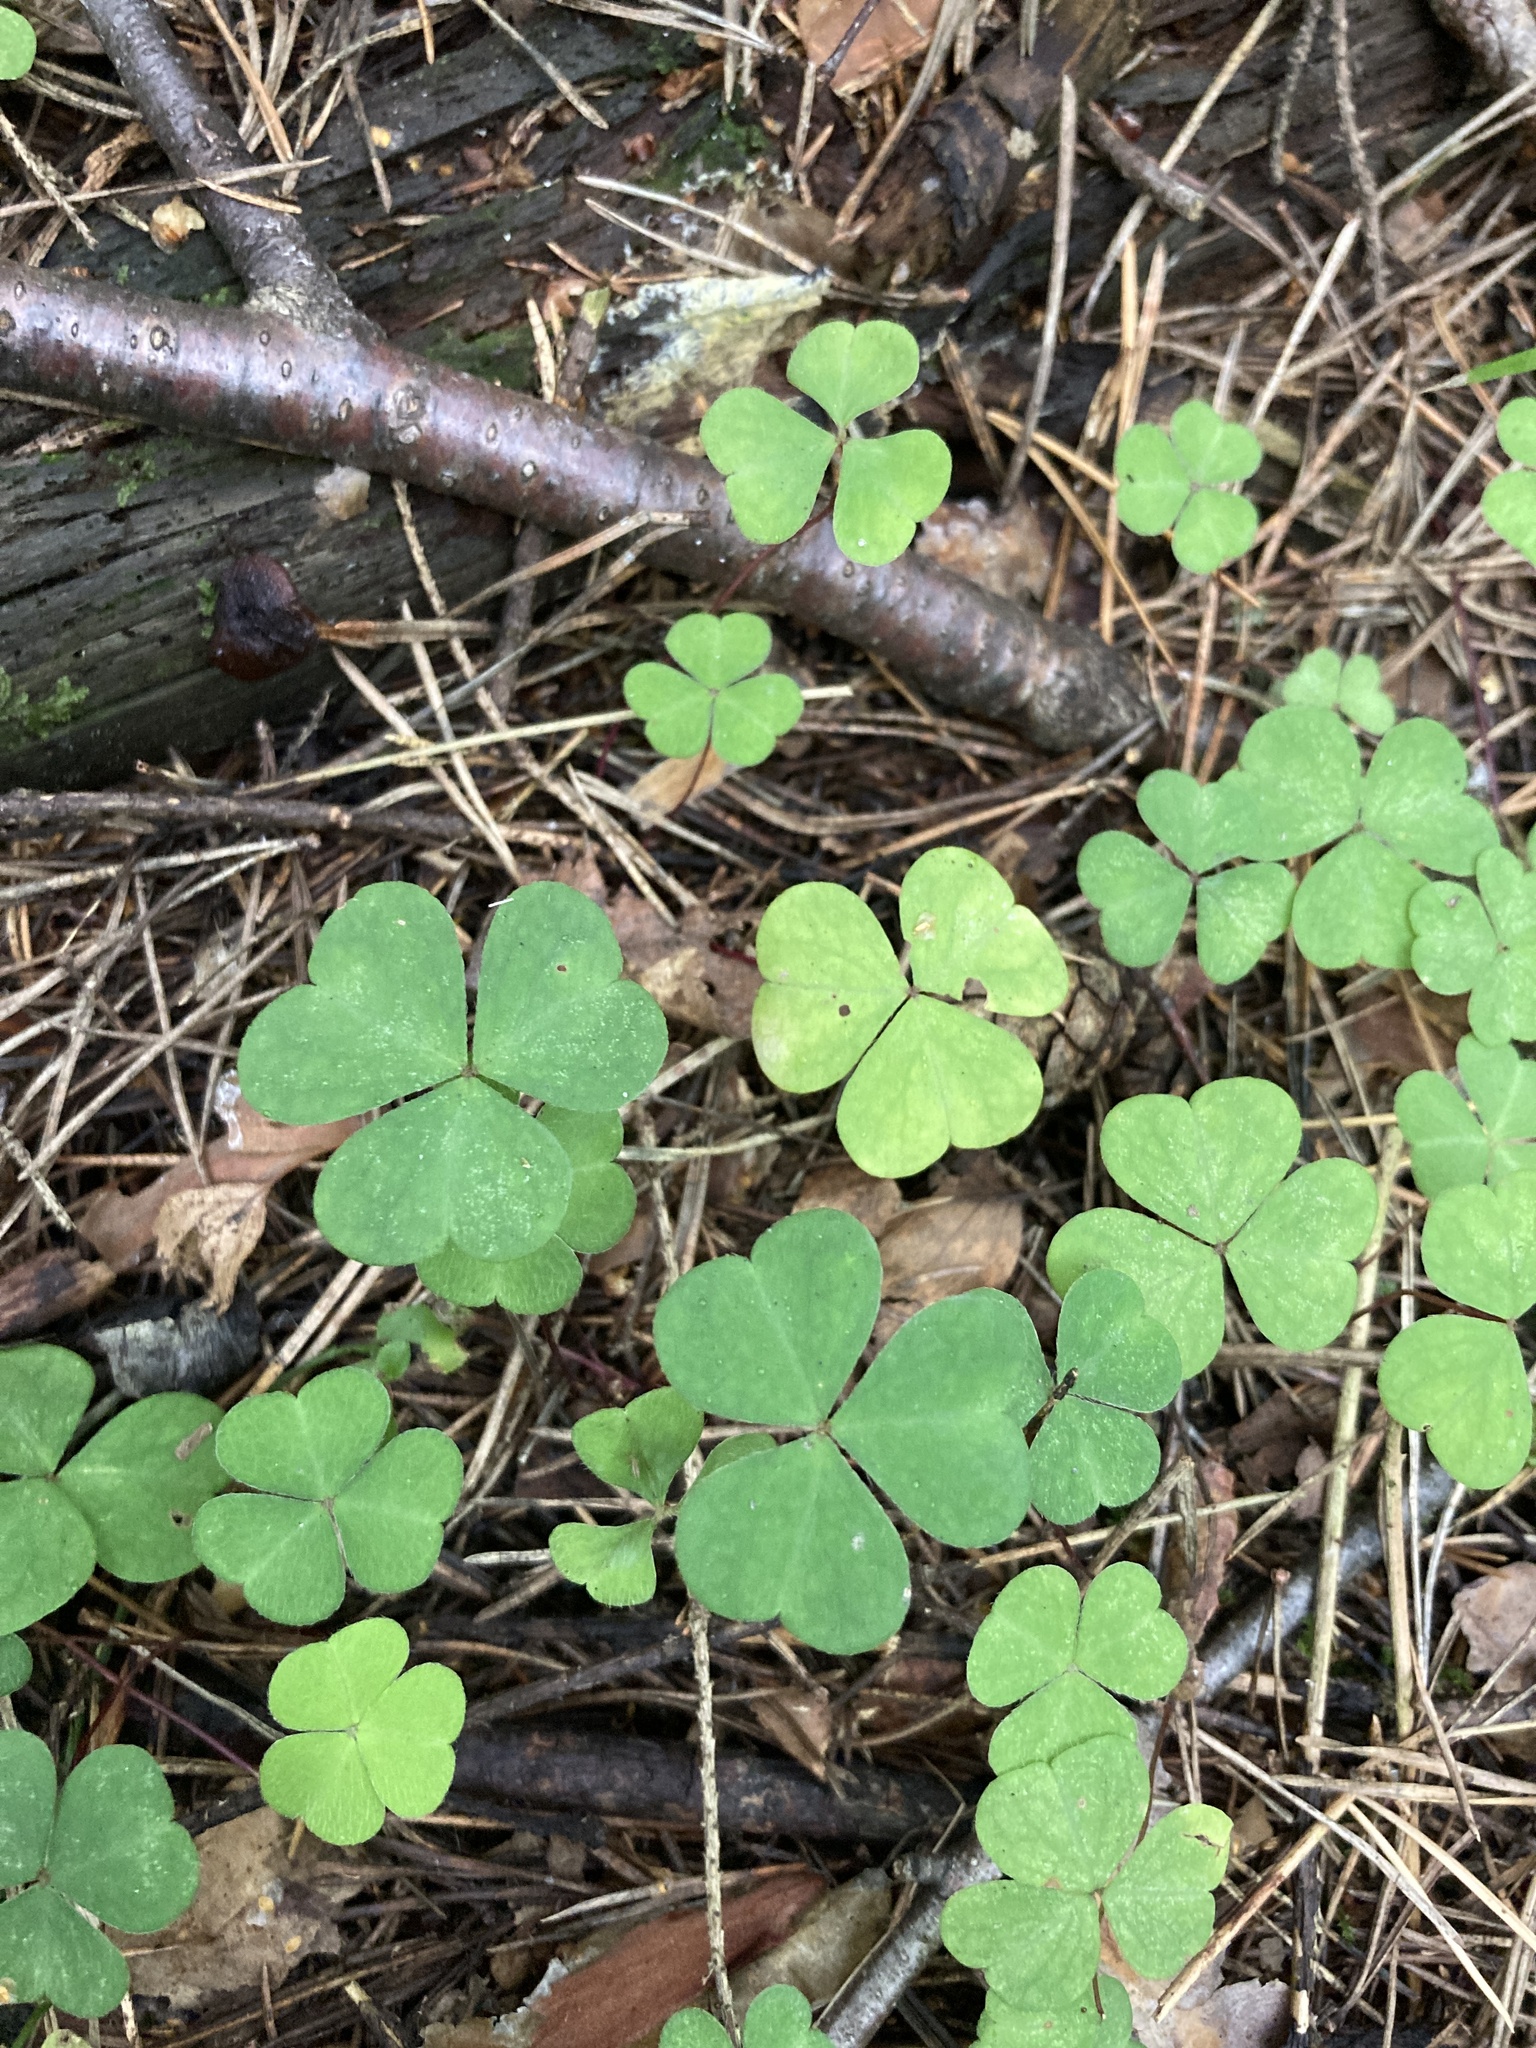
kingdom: Plantae
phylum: Tracheophyta
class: Magnoliopsida
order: Oxalidales
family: Oxalidaceae
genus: Oxalis
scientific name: Oxalis acetosella
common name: Wood-sorrel
